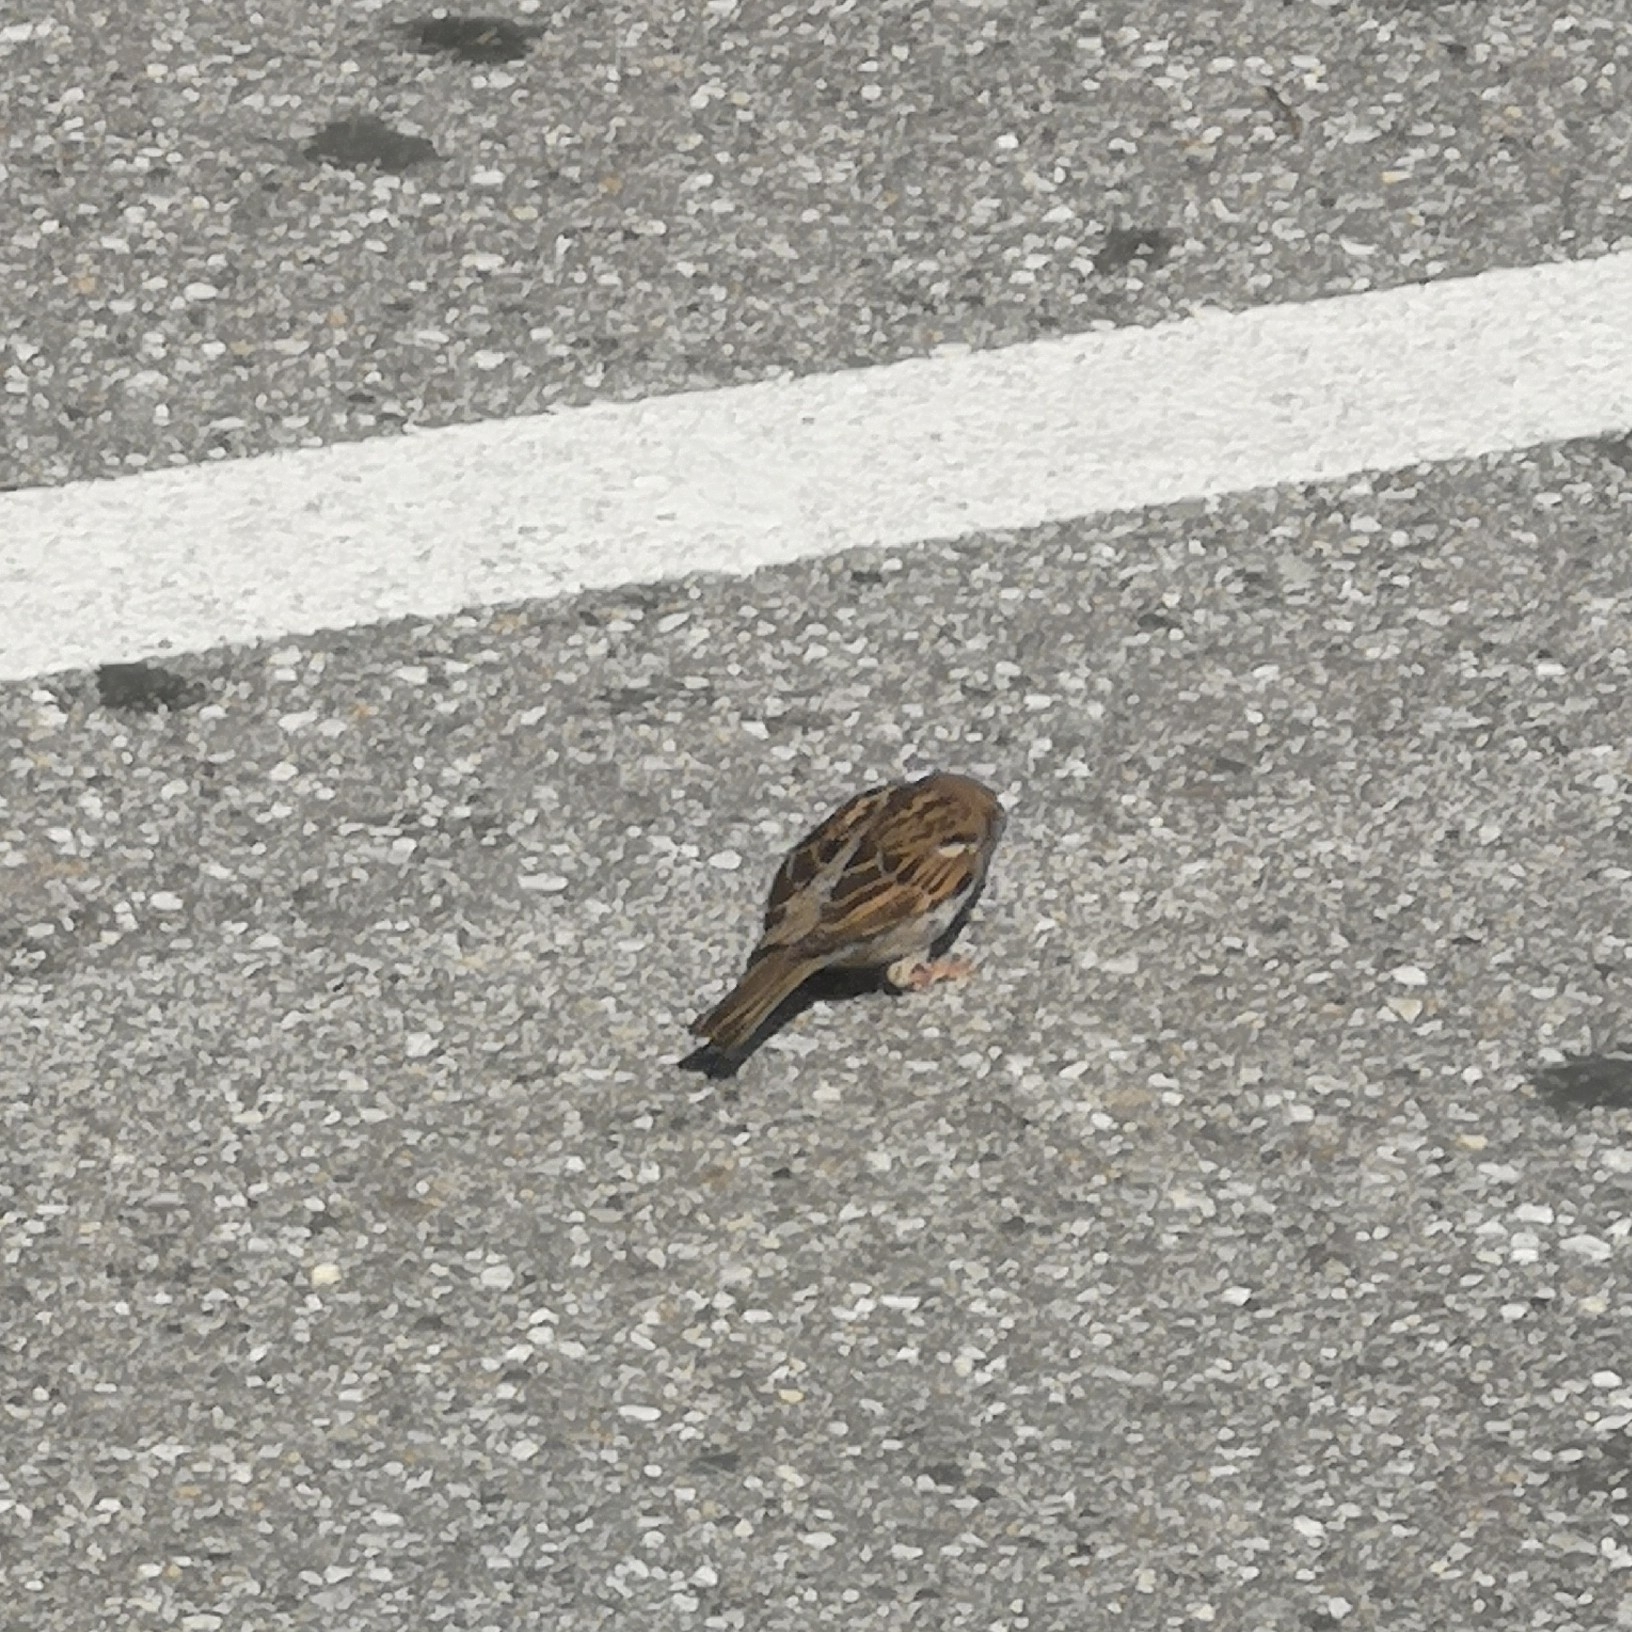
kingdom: Animalia
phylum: Chordata
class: Aves
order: Passeriformes
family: Passeridae
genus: Passer
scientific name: Passer domesticus
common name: House sparrow
